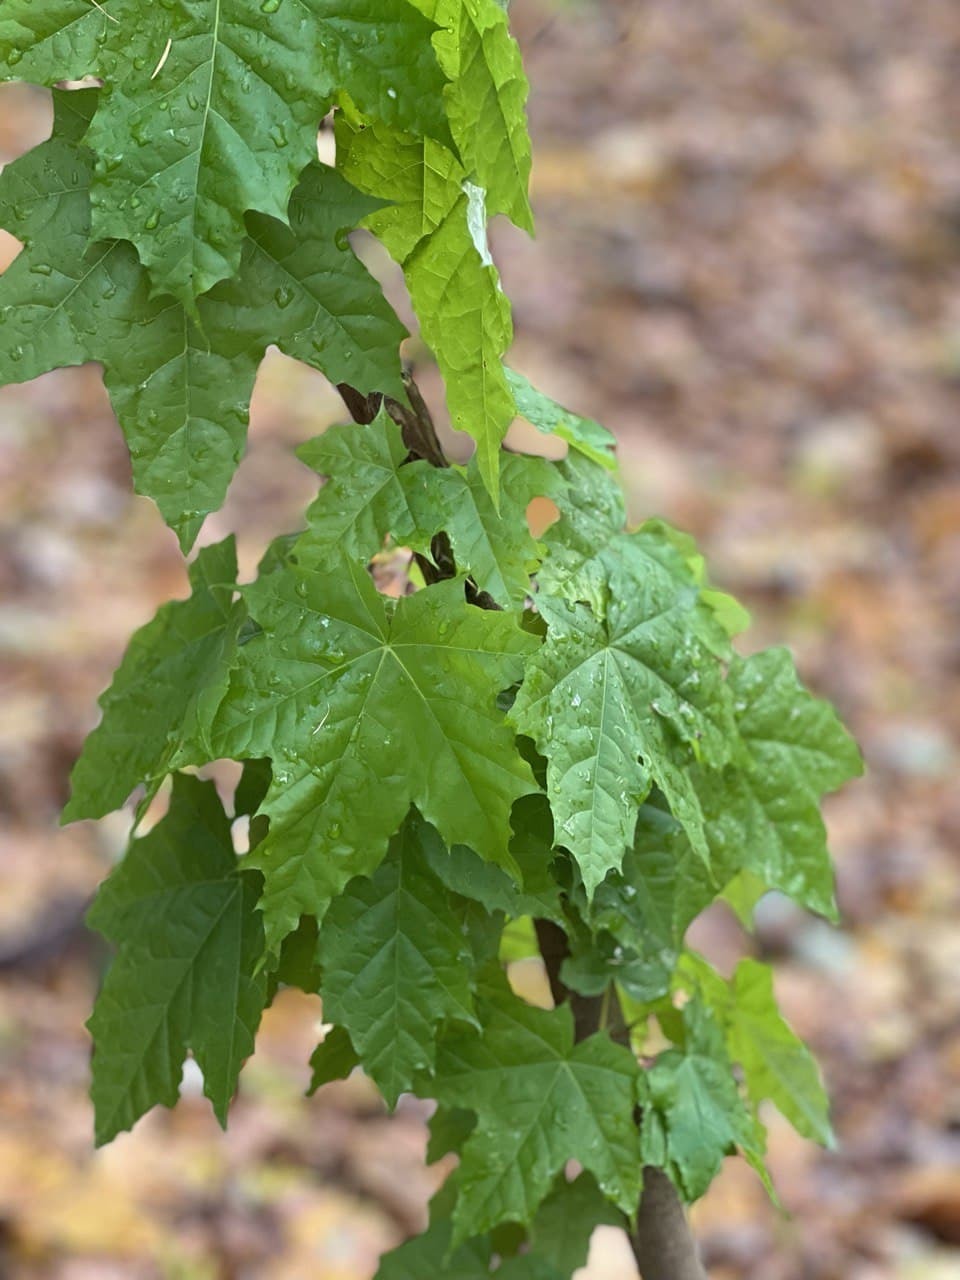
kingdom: Plantae
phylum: Tracheophyta
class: Magnoliopsida
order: Sapindales
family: Sapindaceae
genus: Acer
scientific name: Acer platanoides
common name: Norway maple
